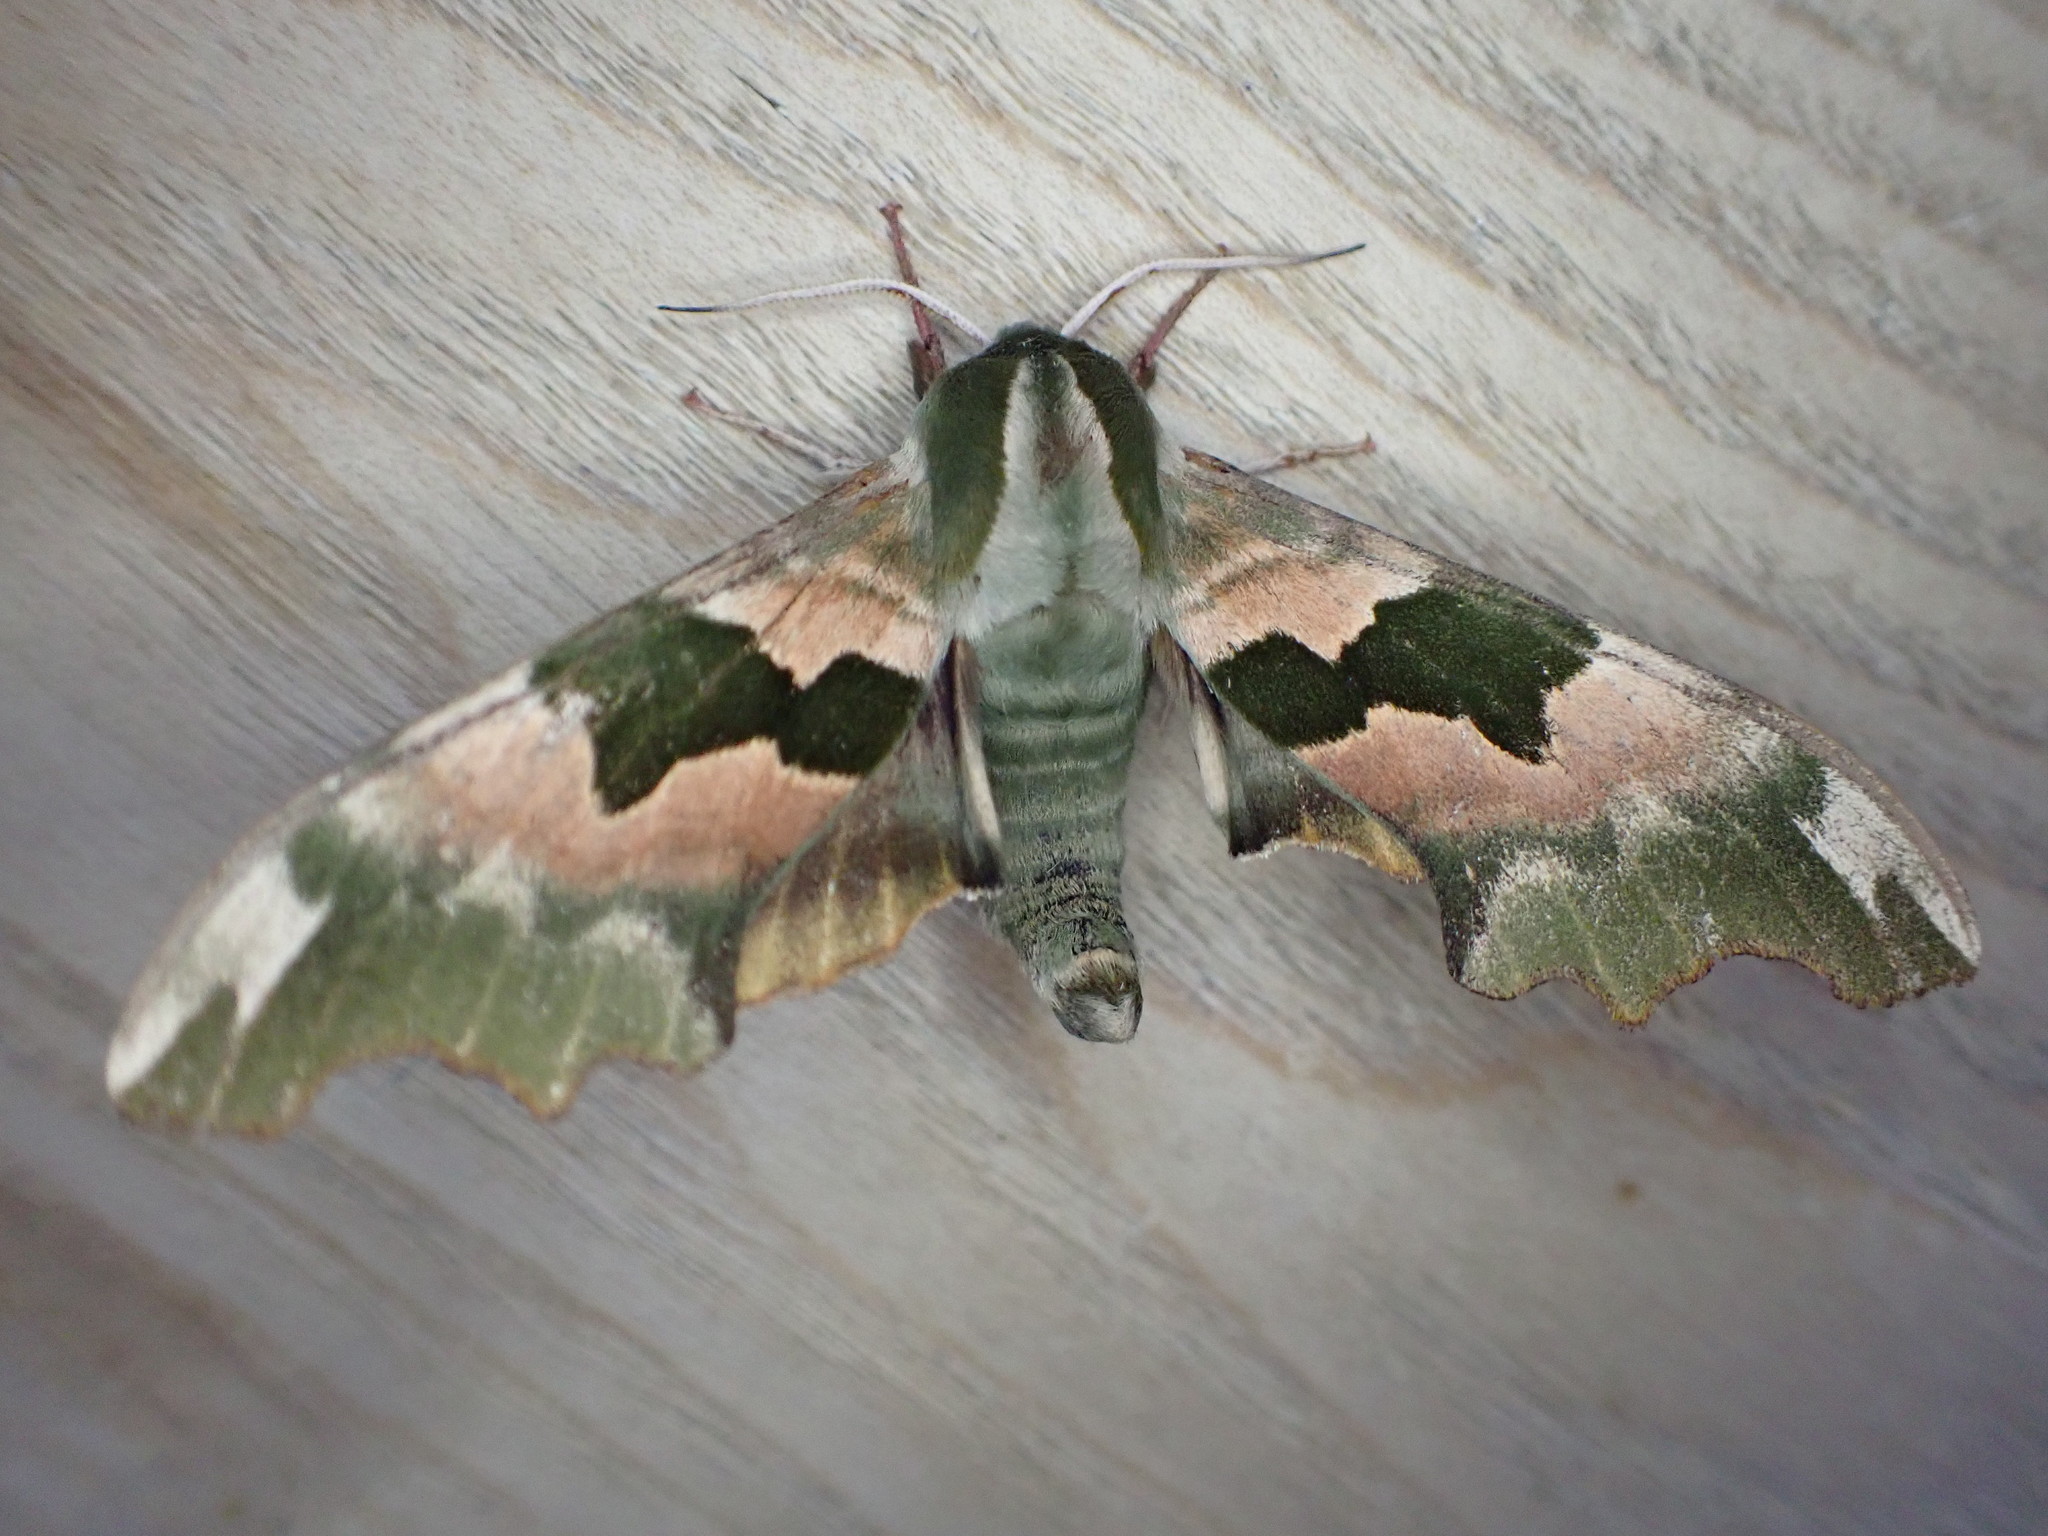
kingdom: Animalia
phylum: Arthropoda
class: Insecta
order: Lepidoptera
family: Sphingidae
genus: Mimas
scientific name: Mimas tiliae
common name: Lime hawk-moth
